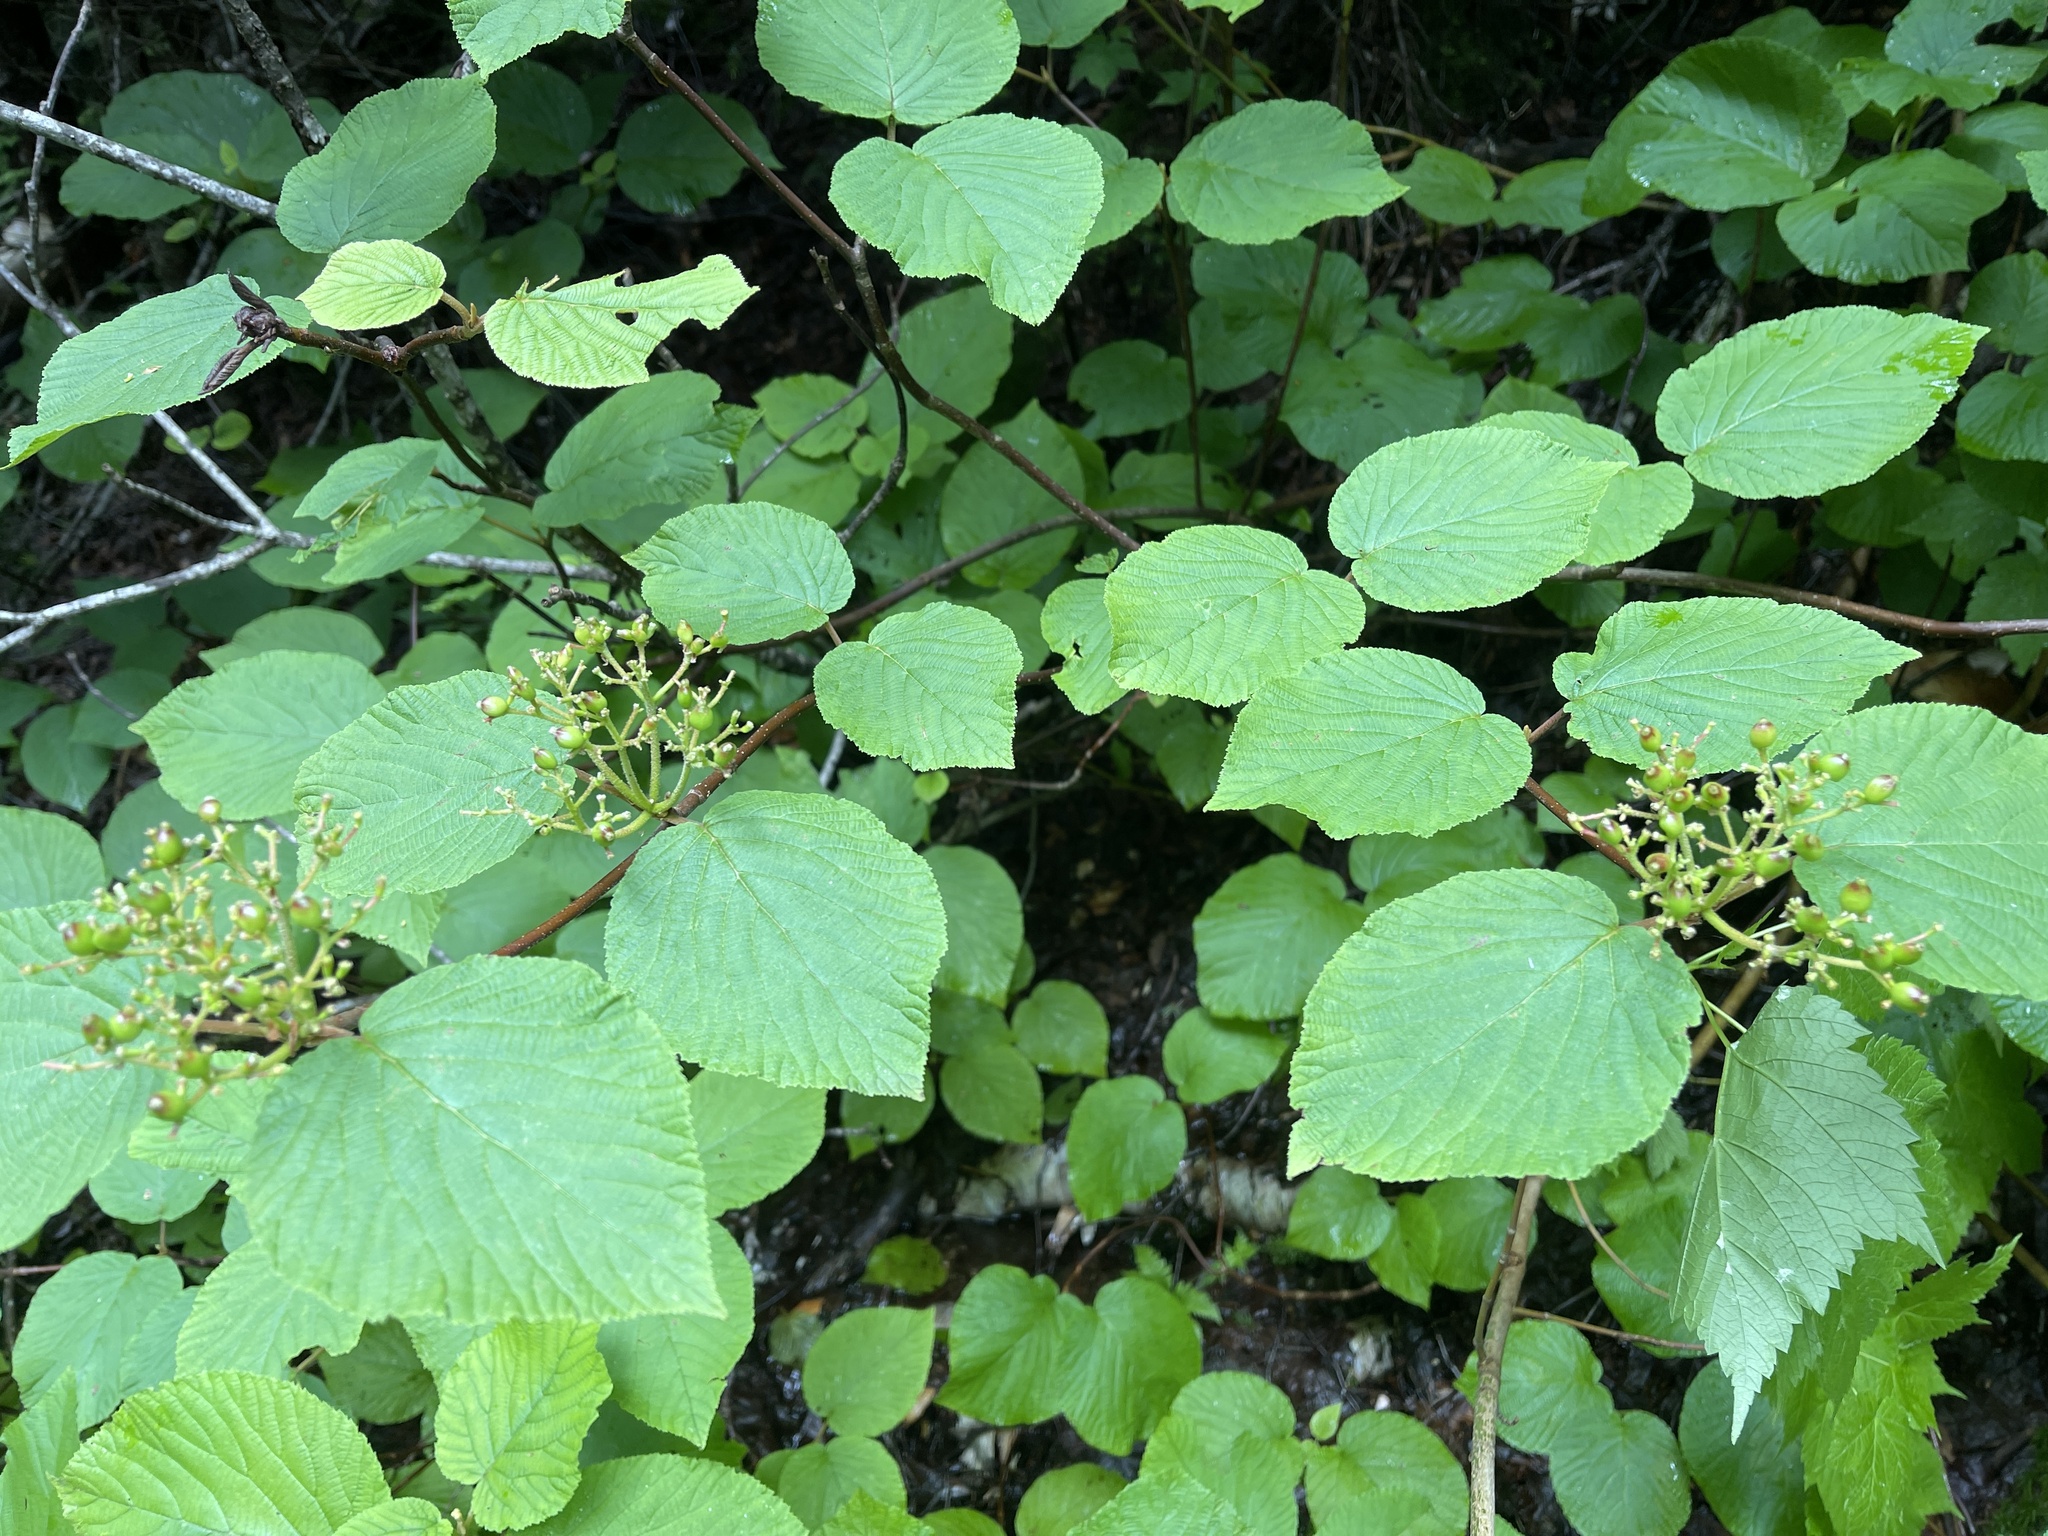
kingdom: Plantae
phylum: Tracheophyta
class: Magnoliopsida
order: Dipsacales
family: Viburnaceae
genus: Viburnum
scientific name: Viburnum lantanoides
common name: Hobblebush
